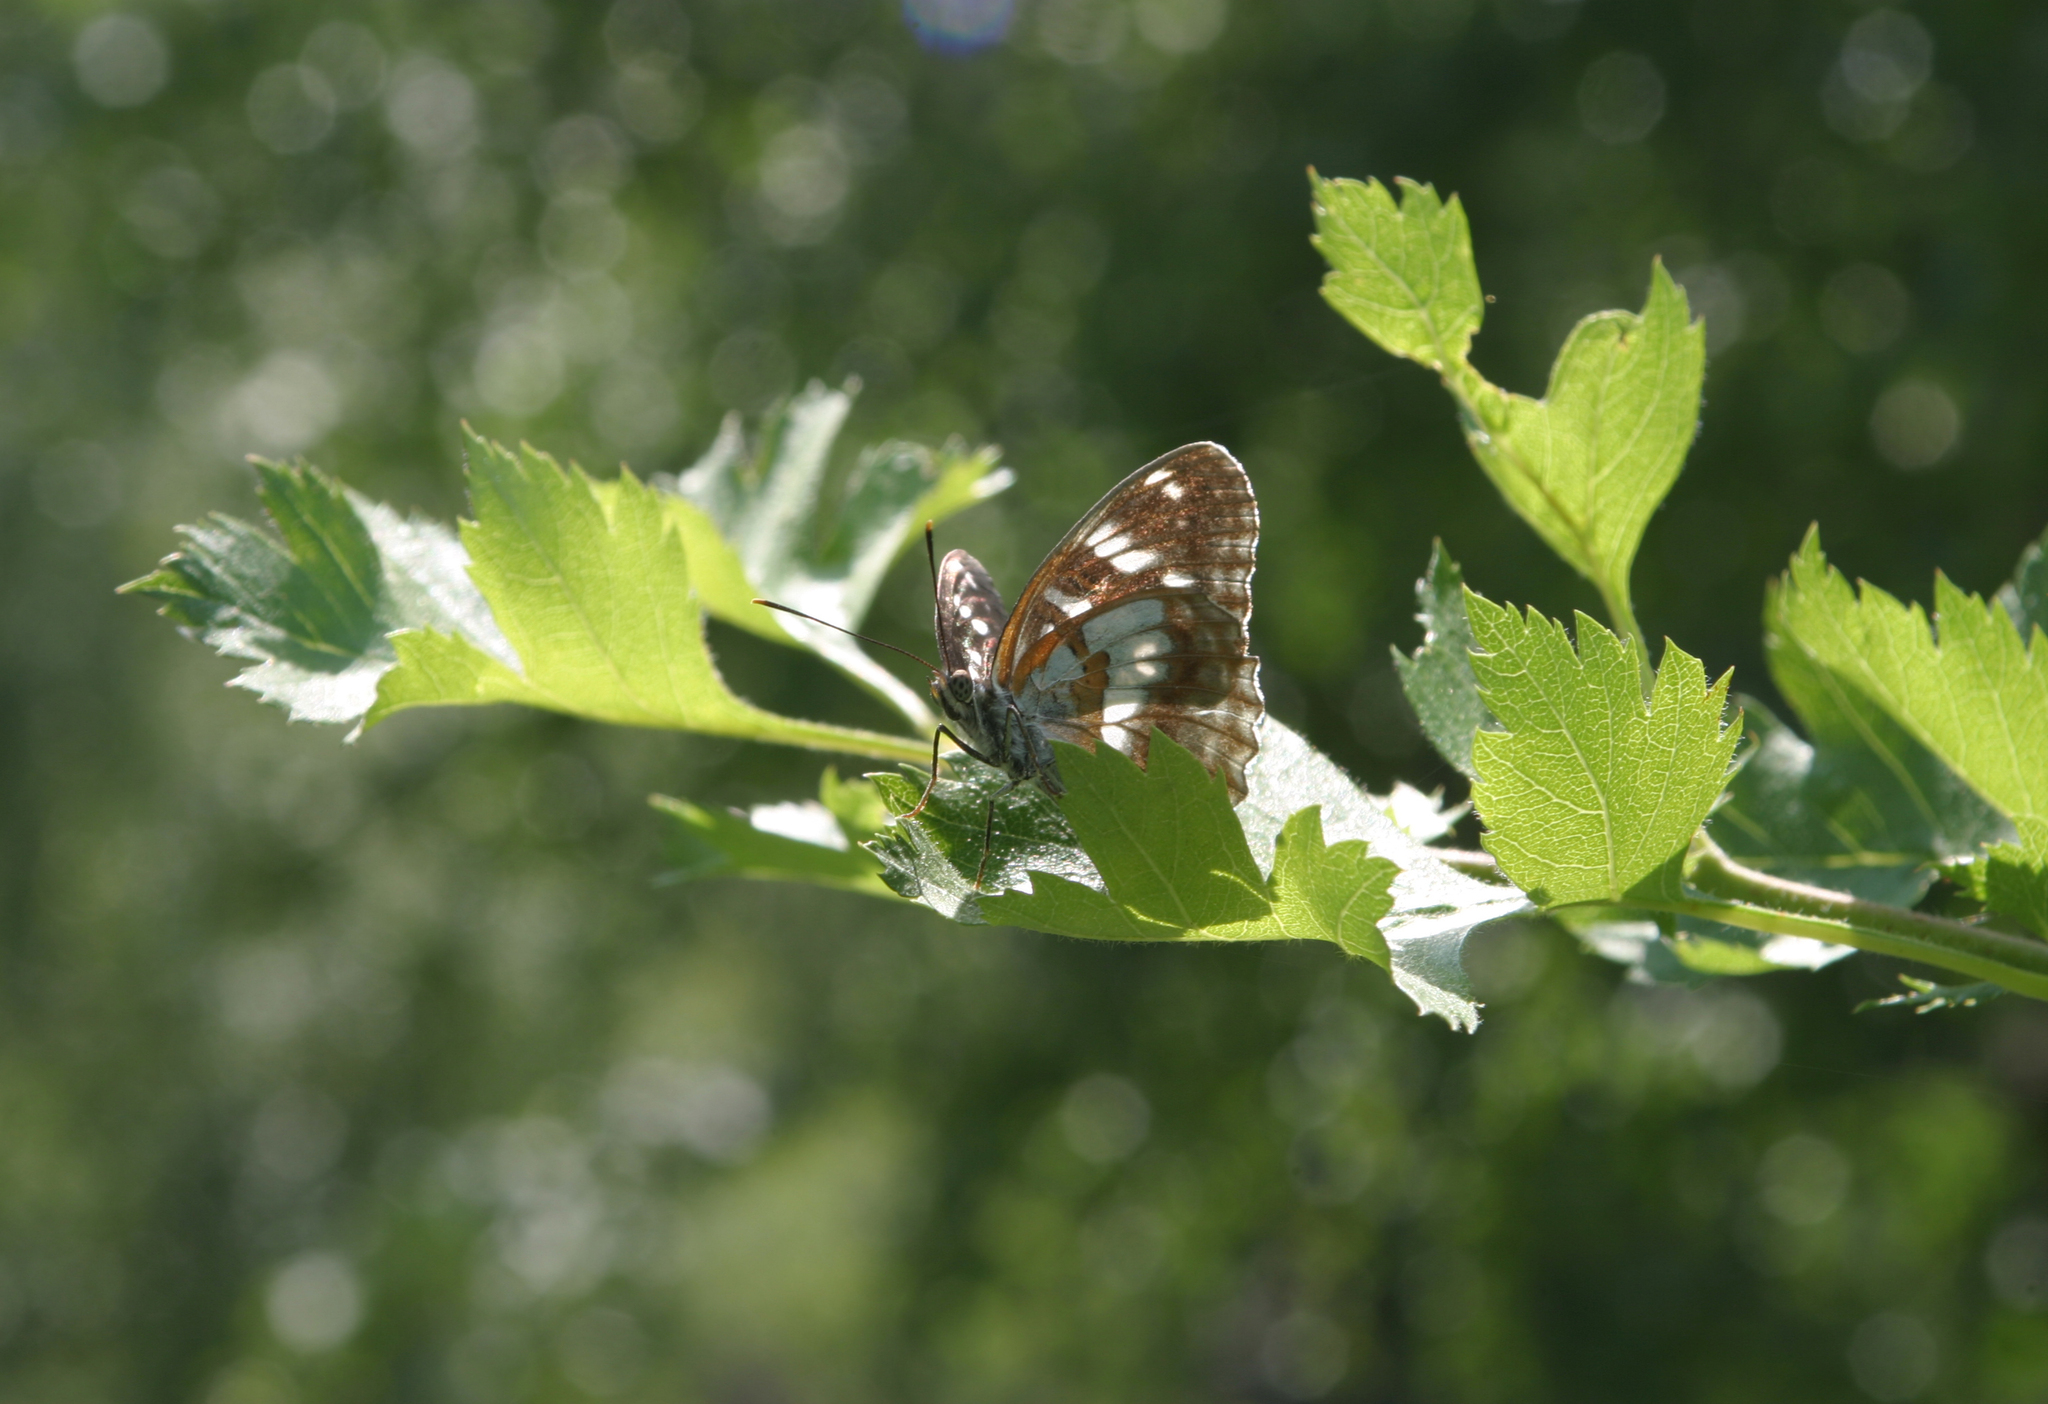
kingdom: Animalia
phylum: Arthropoda
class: Insecta
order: Lepidoptera
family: Nymphalidae
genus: Limenitis
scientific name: Limenitis helmanni
